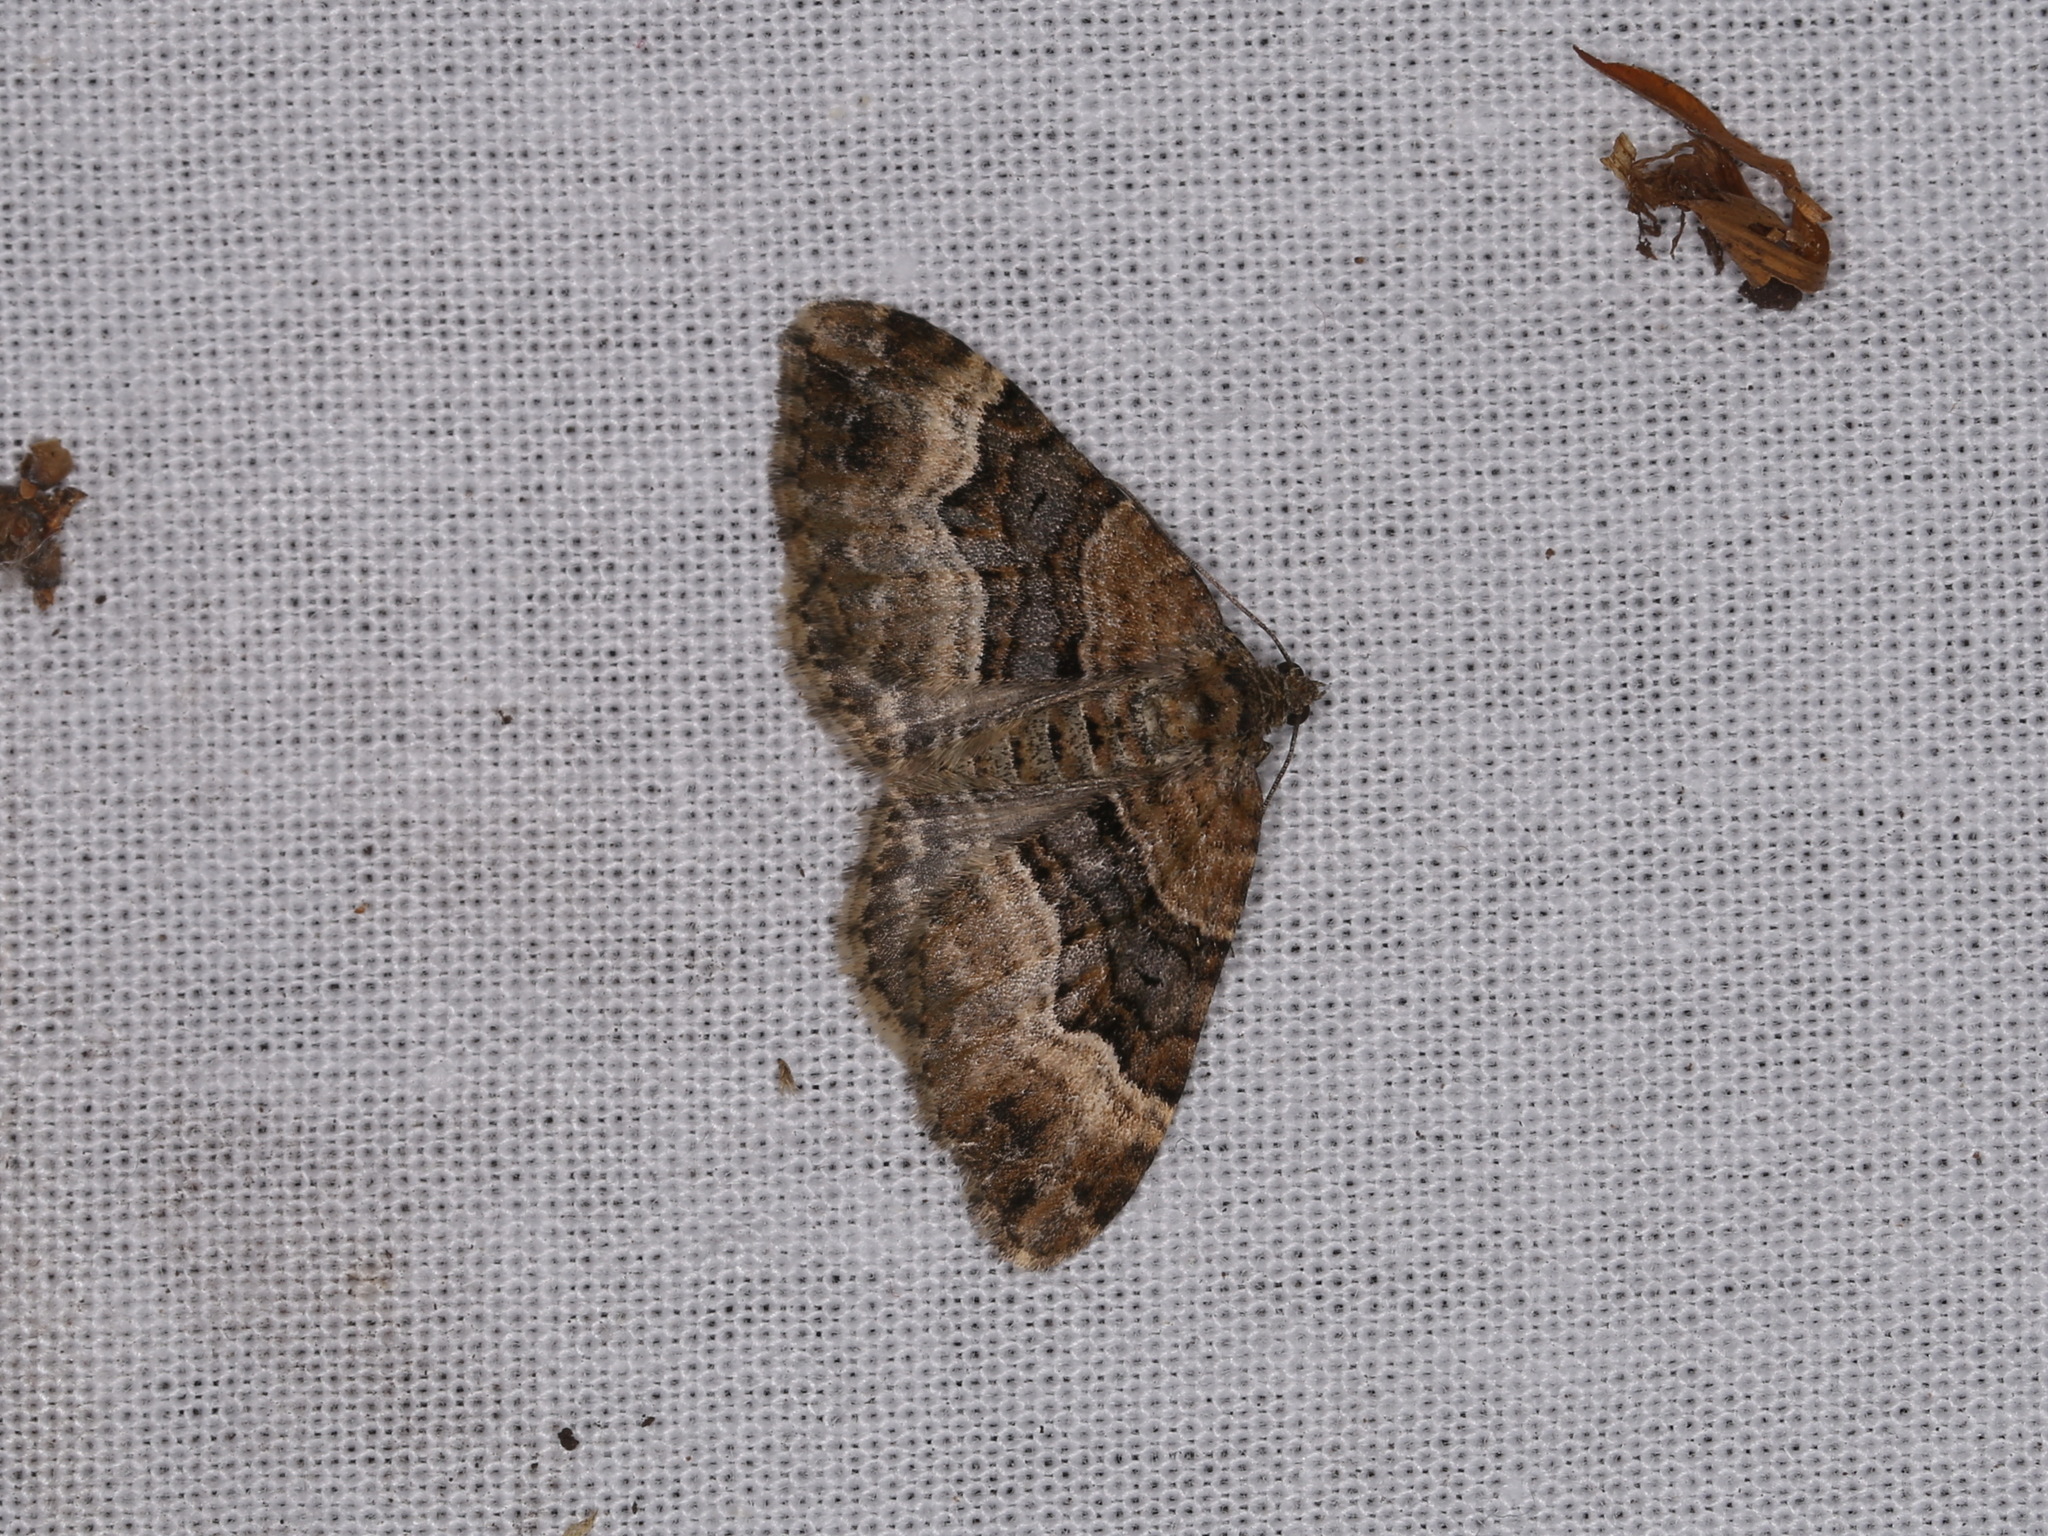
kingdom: Animalia
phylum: Arthropoda
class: Insecta
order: Lepidoptera
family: Geometridae
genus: Xanthorhoe
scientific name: Xanthorhoe spadicearia
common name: Red twin-spot carpet
